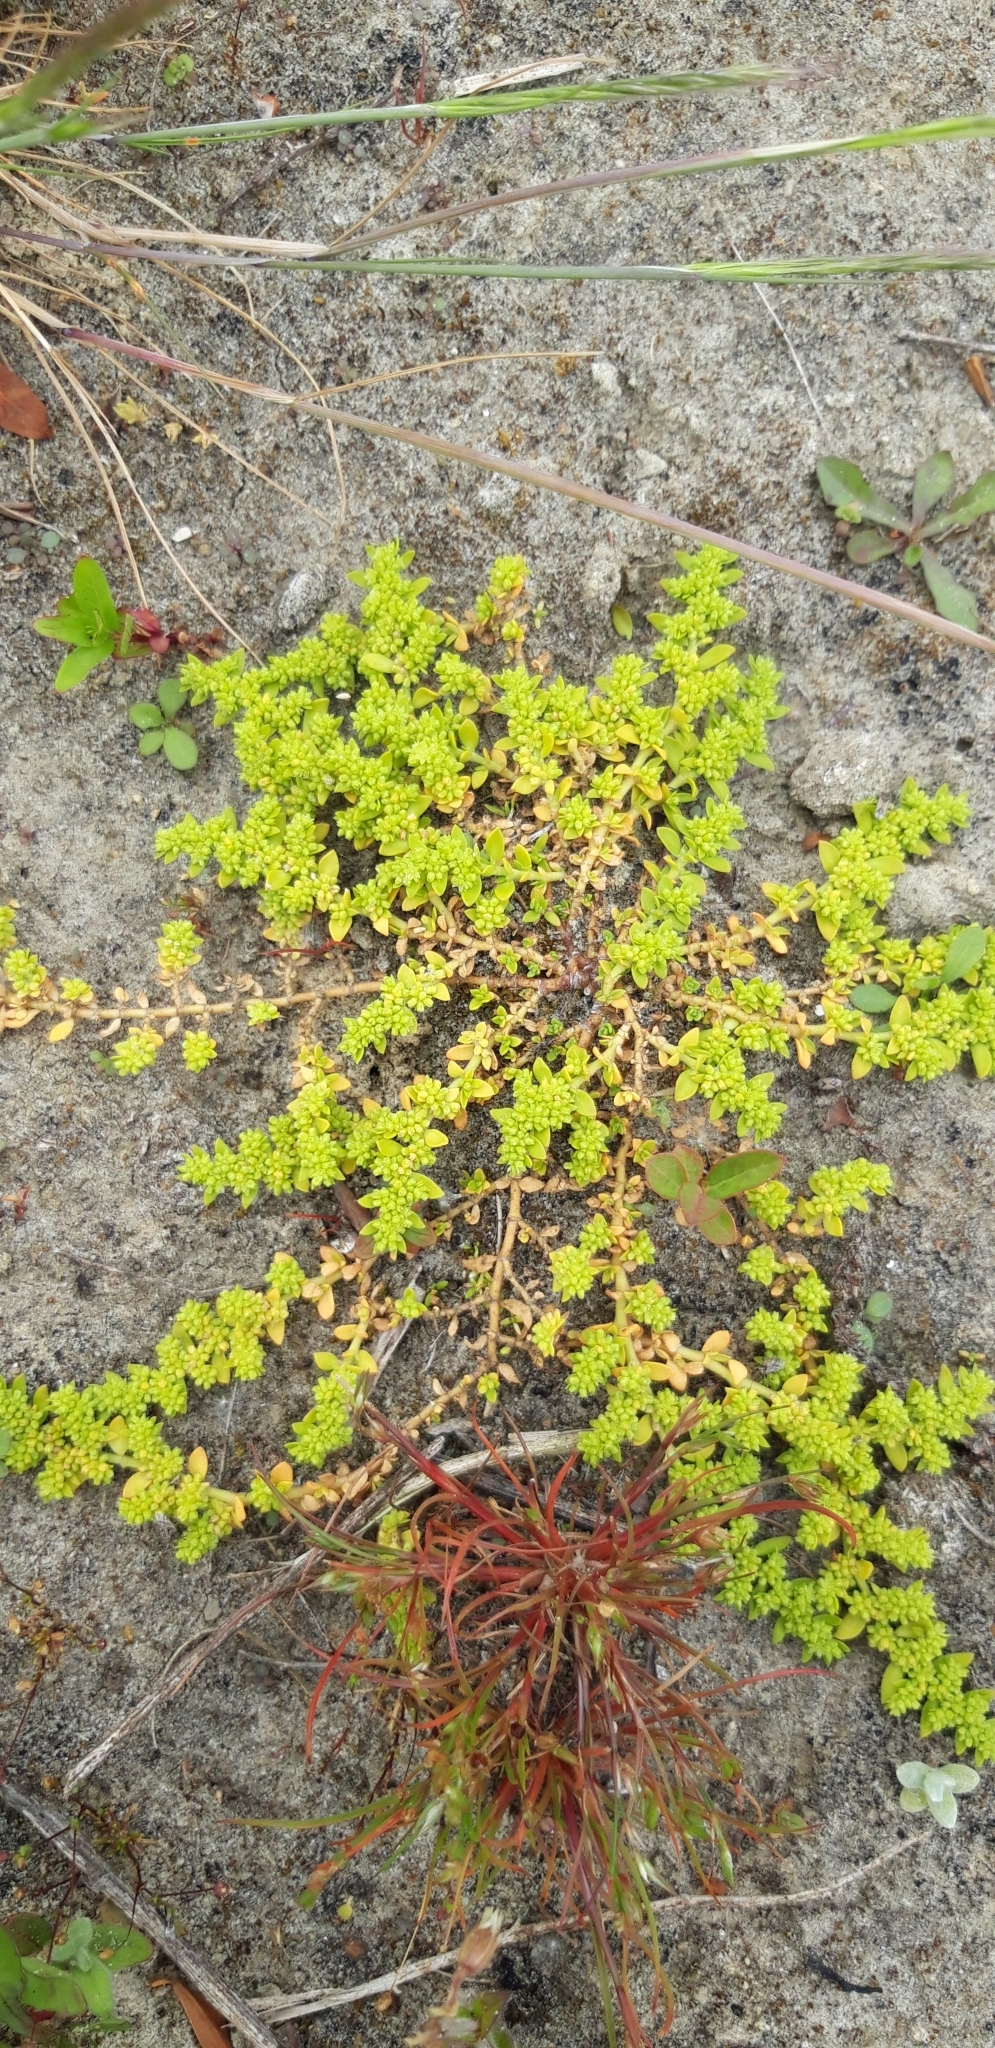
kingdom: Plantae
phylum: Tracheophyta
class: Magnoliopsida
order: Caryophyllales
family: Caryophyllaceae
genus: Herniaria
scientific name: Herniaria glabra
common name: Smooth rupturewort
